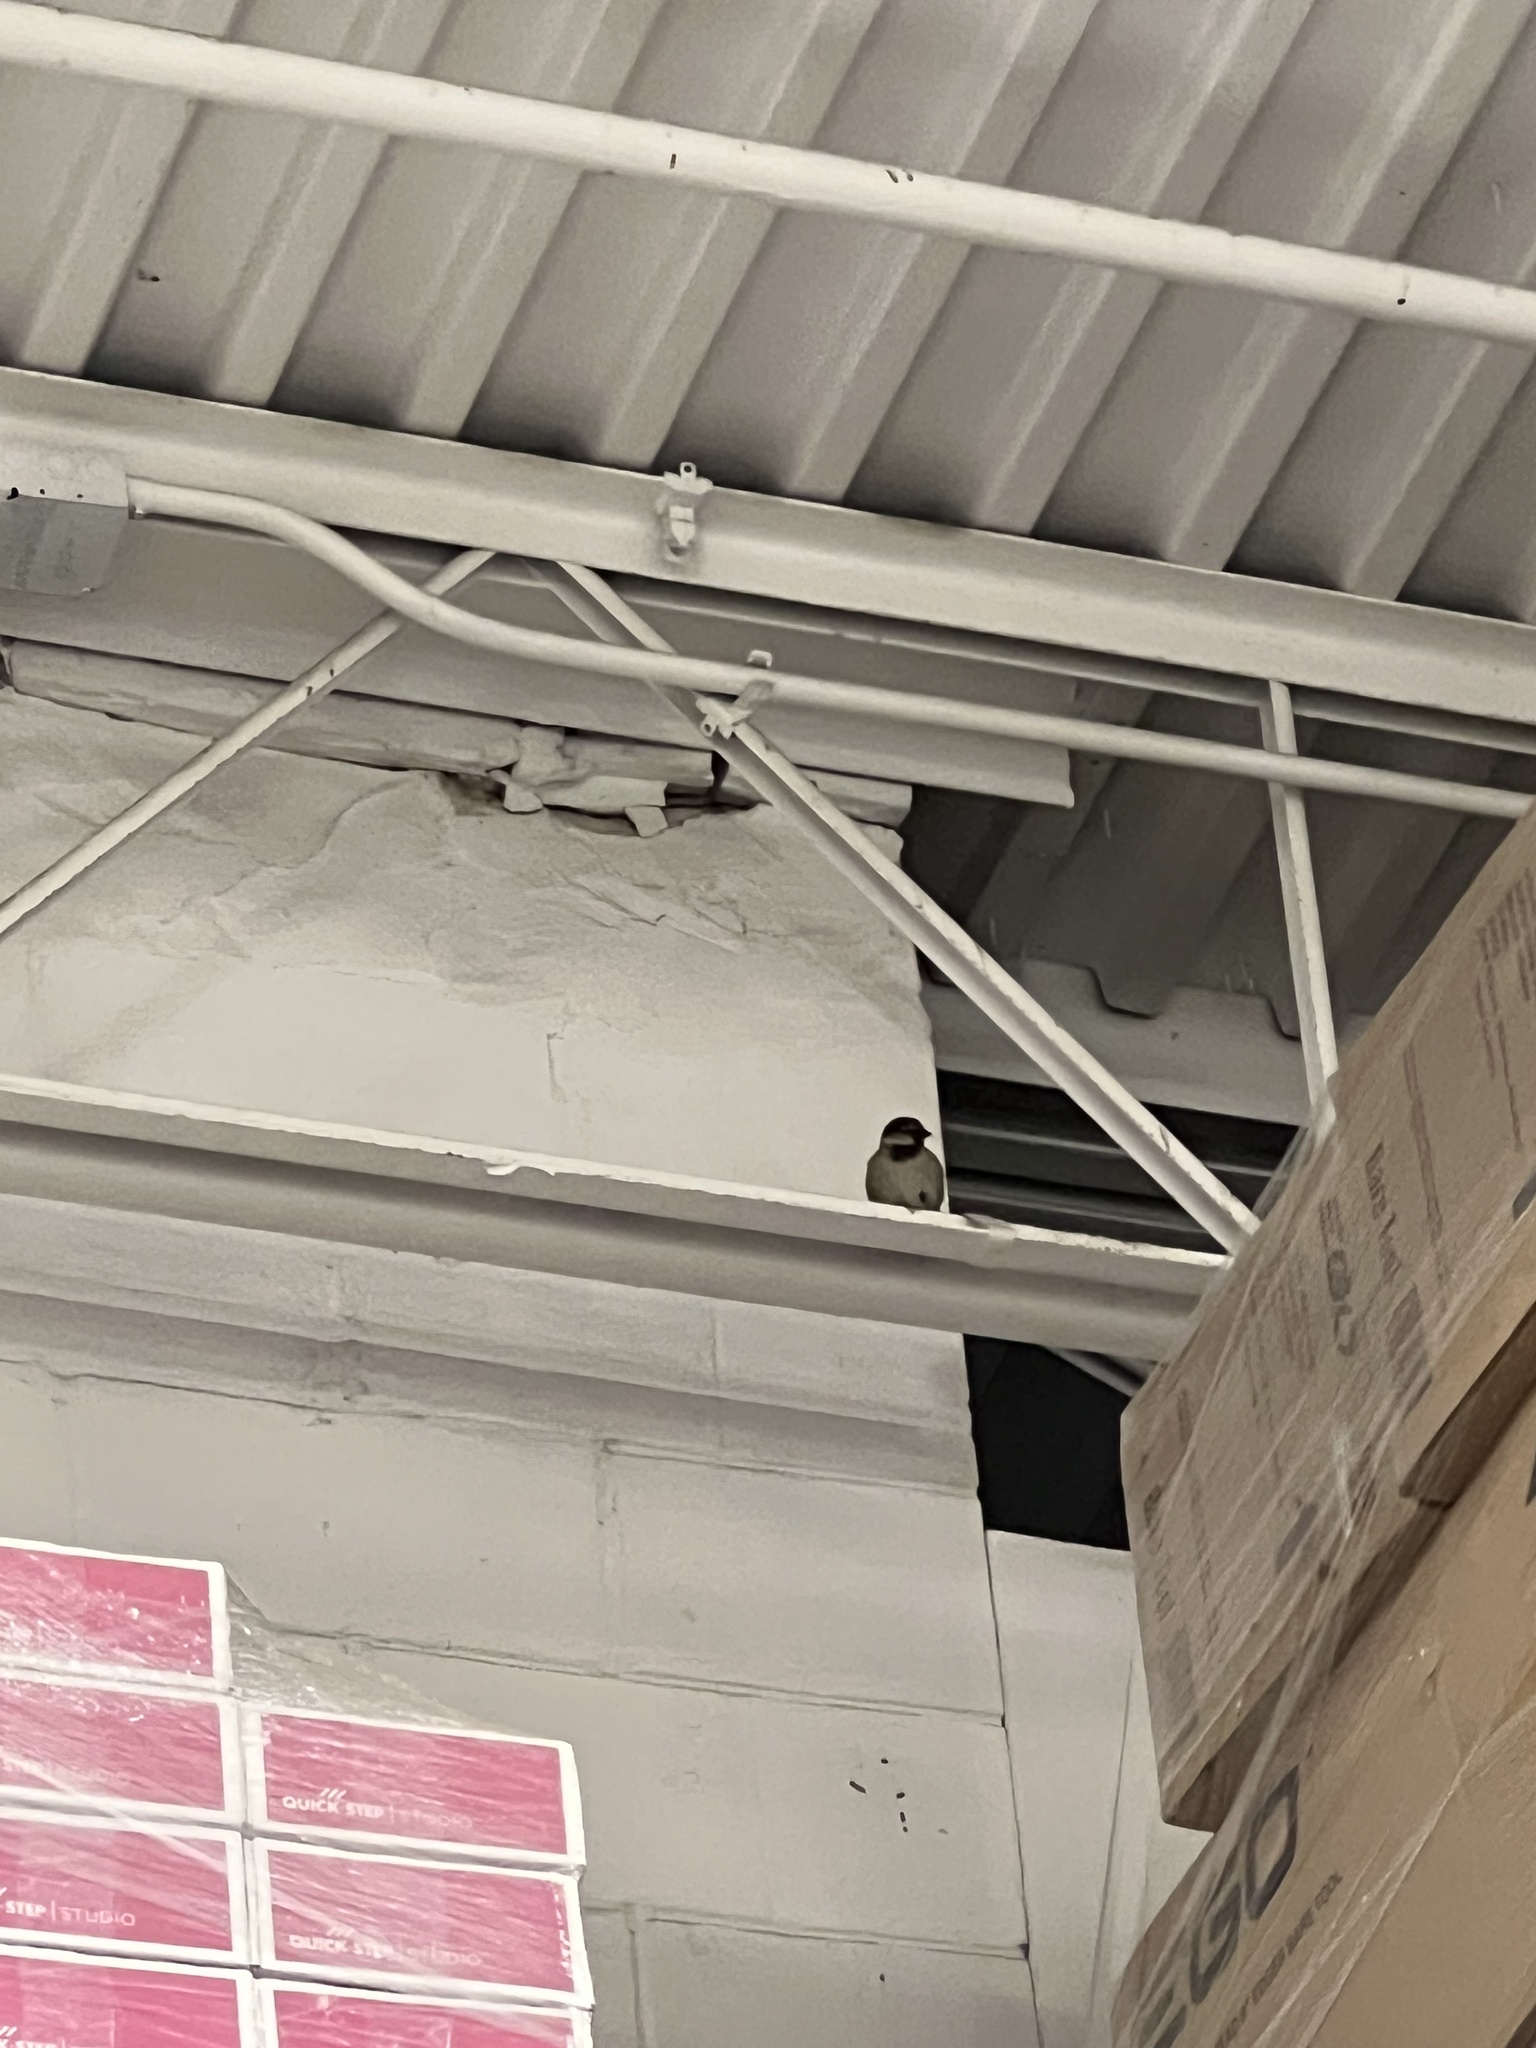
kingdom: Animalia
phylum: Chordata
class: Aves
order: Passeriformes
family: Passeridae
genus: Passer
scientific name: Passer domesticus
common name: House sparrow
